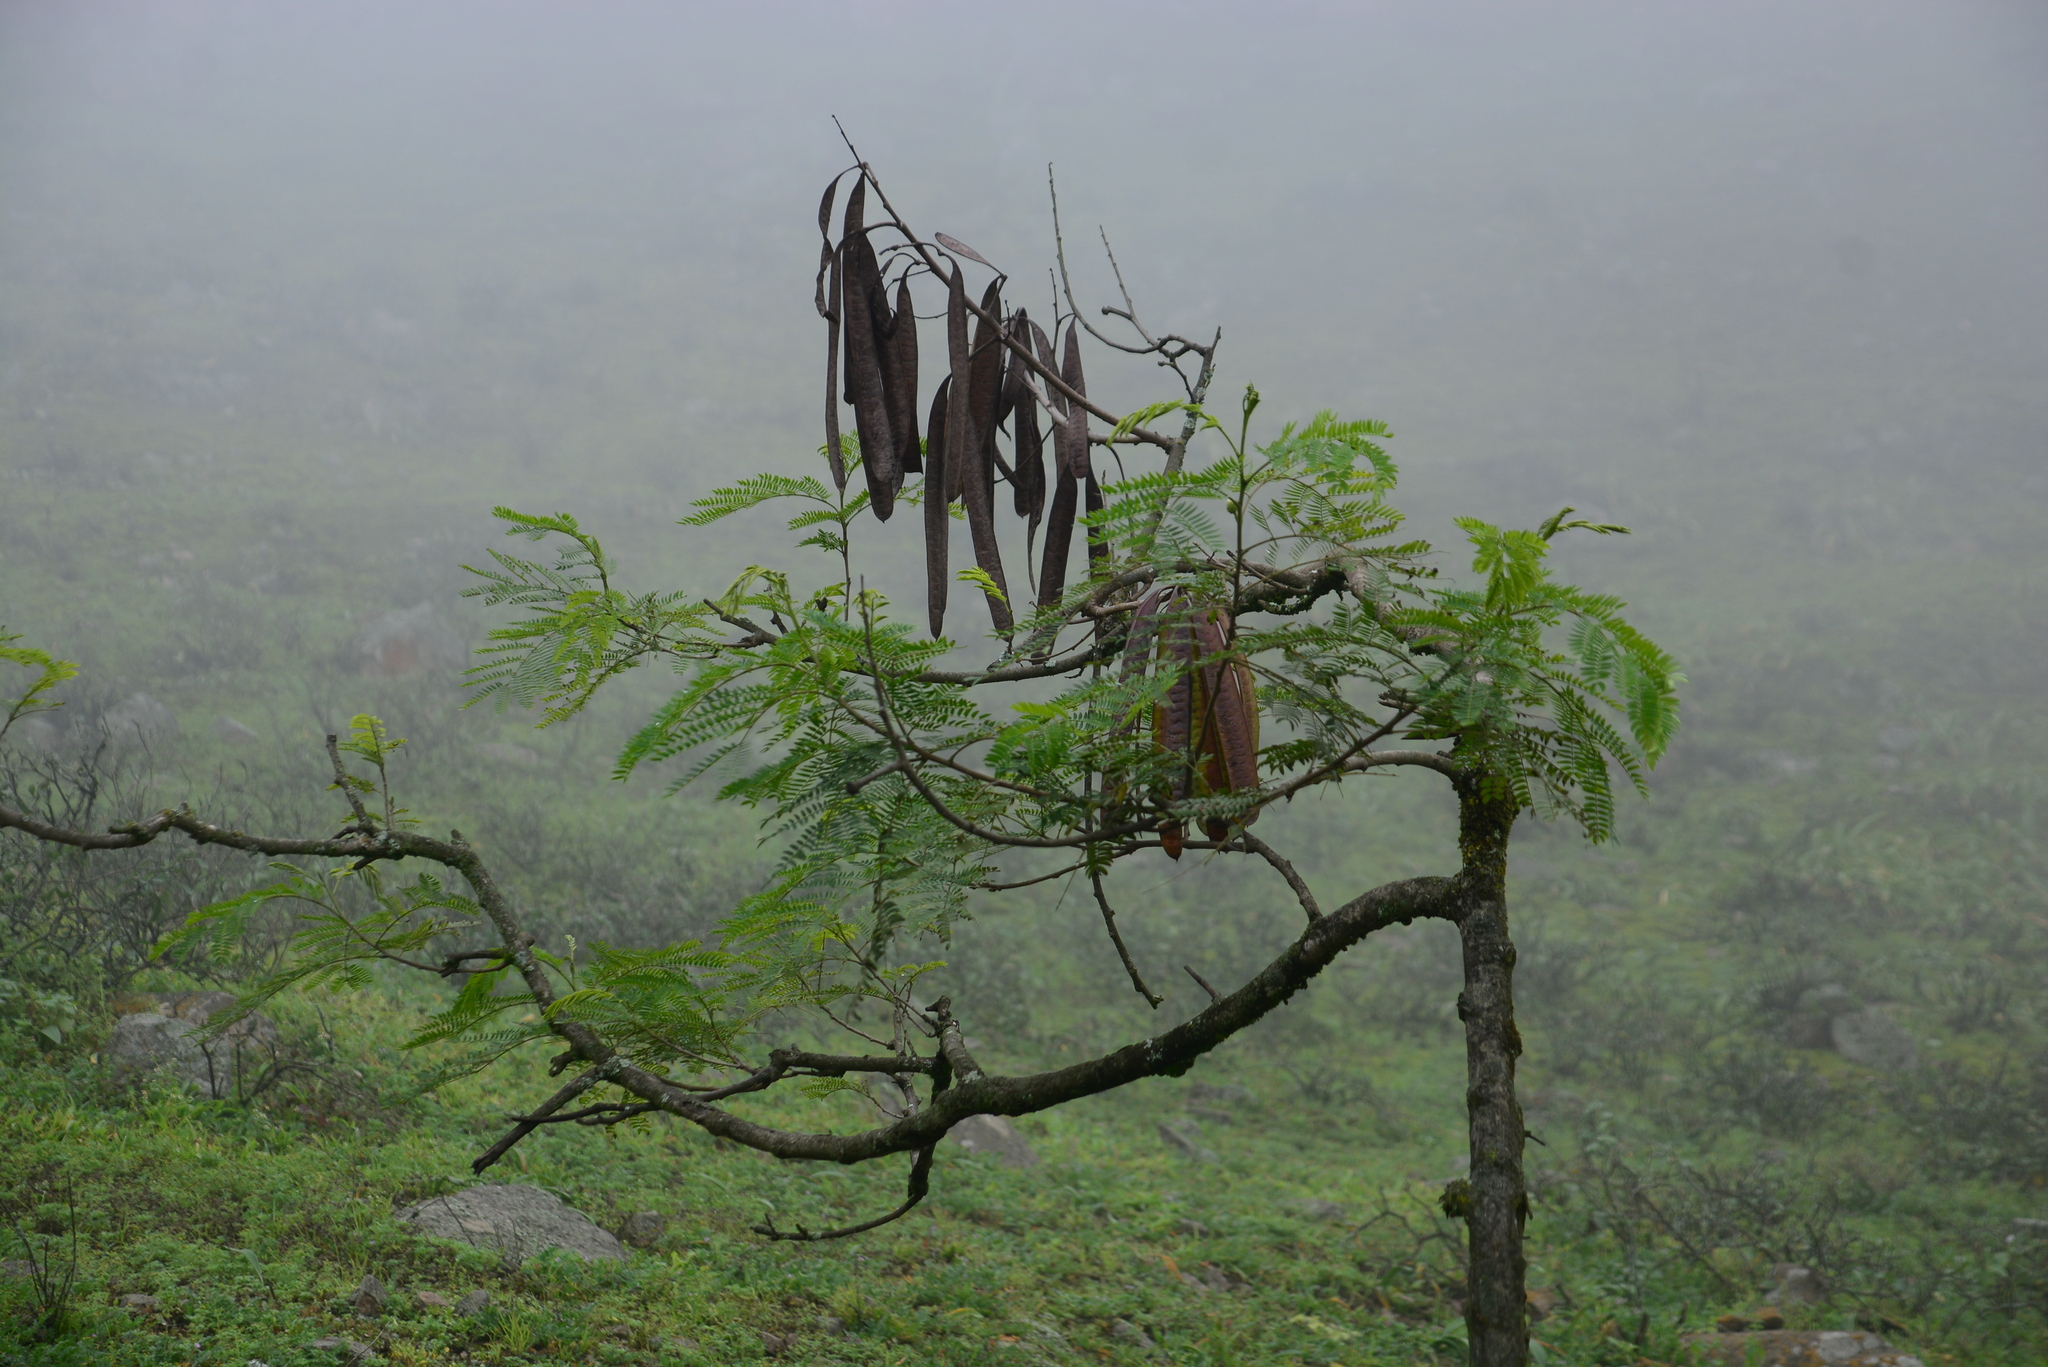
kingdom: Plantae
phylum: Tracheophyta
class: Magnoliopsida
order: Fabales
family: Fabaceae
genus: Leucaena
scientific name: Leucaena leucocephala
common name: White leadtree
